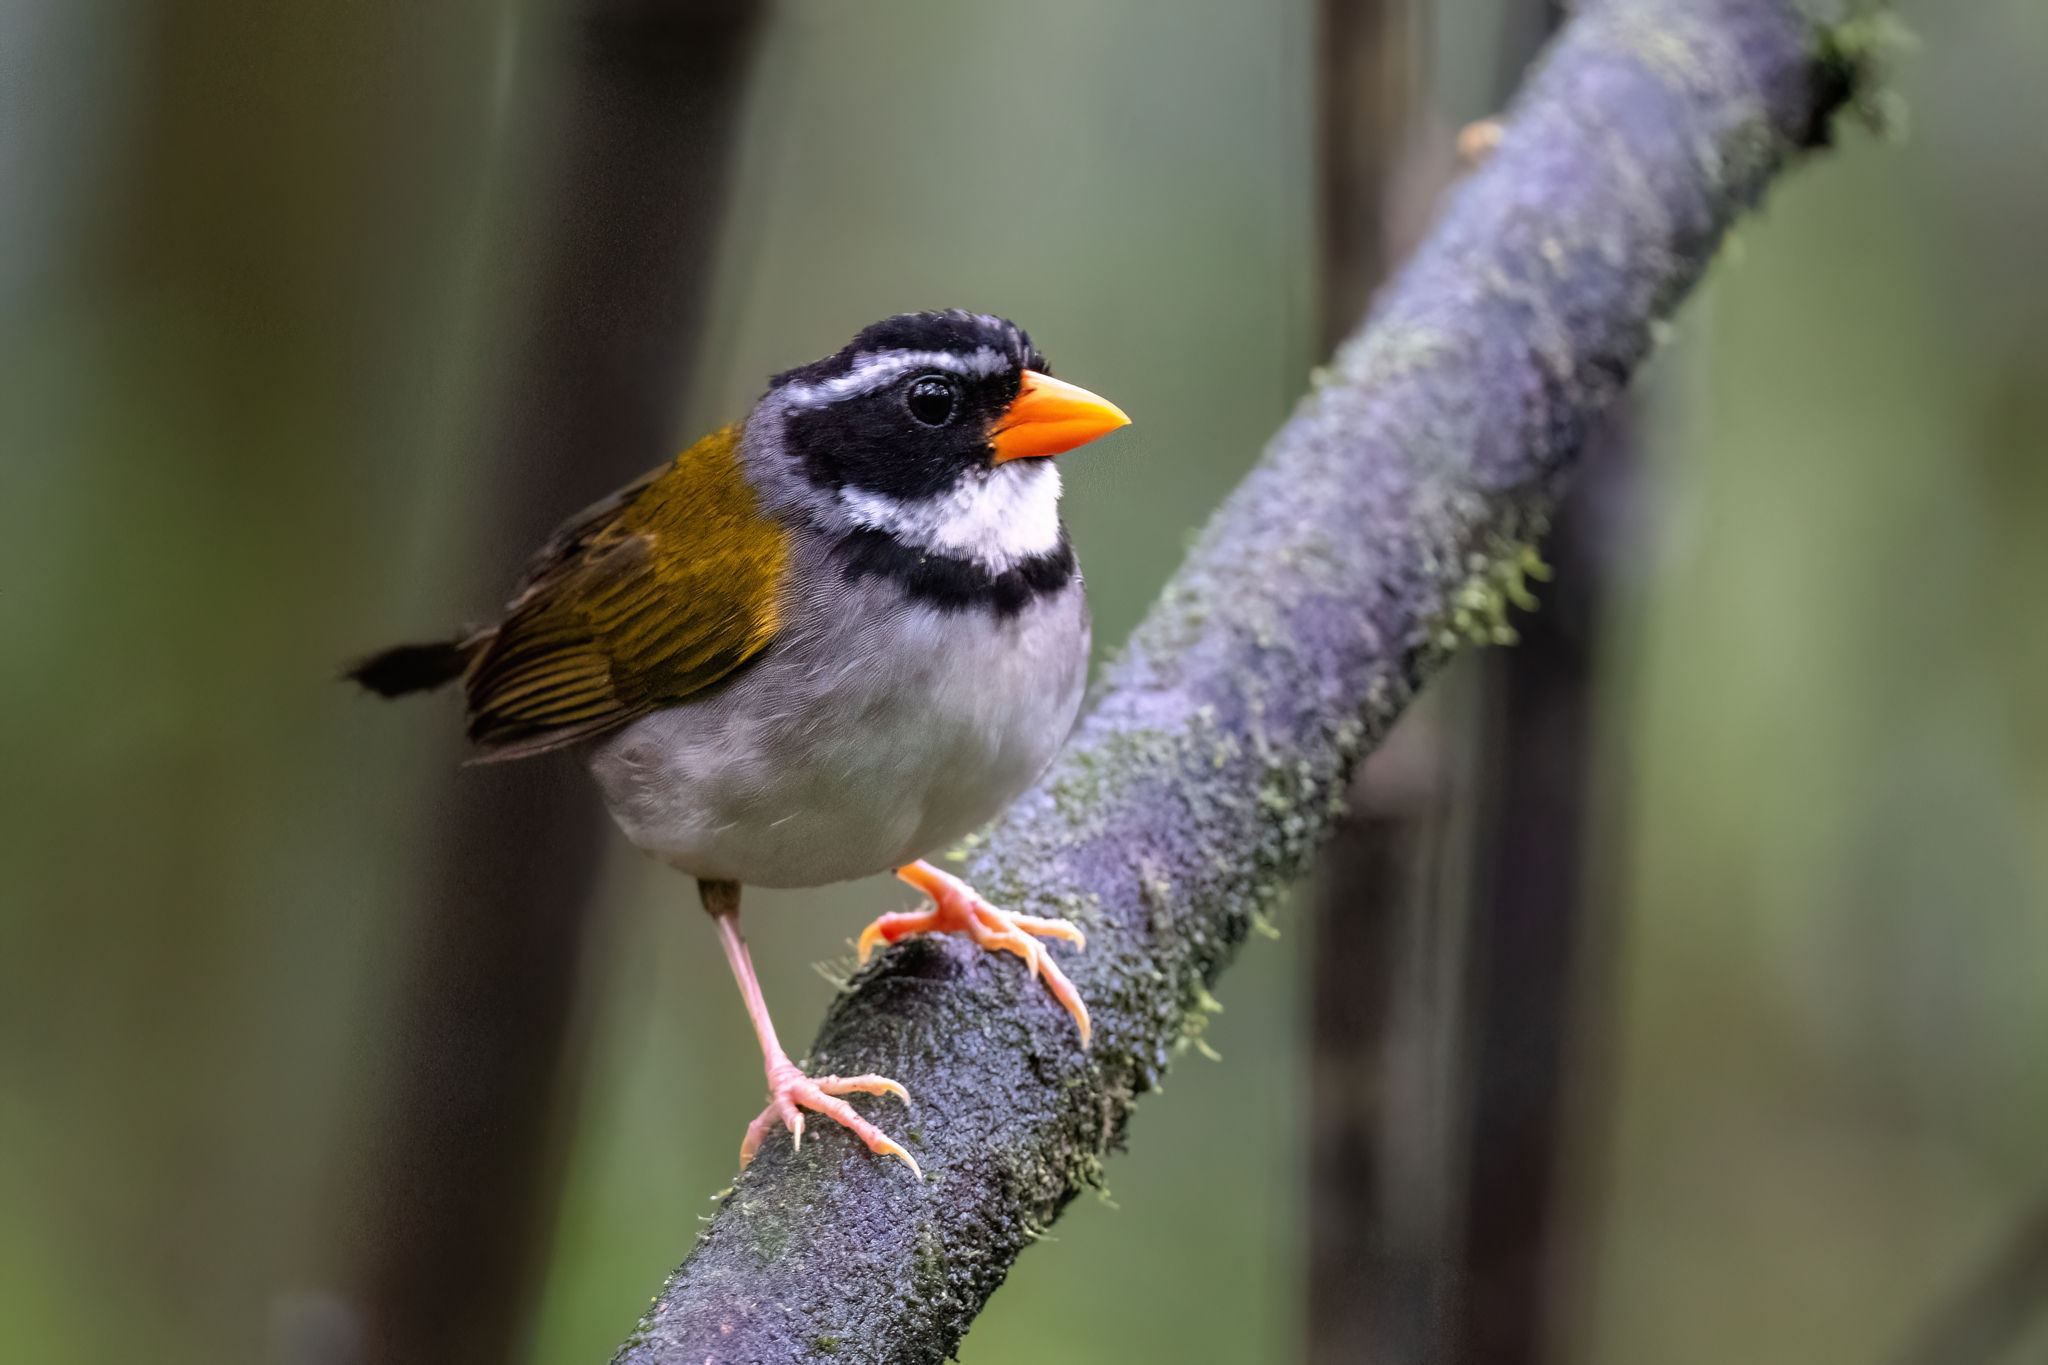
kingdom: Animalia
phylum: Chordata
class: Aves
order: Passeriformes
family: Passerellidae
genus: Arremon
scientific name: Arremon aurantiirostris
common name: Orange-billed sparrow
